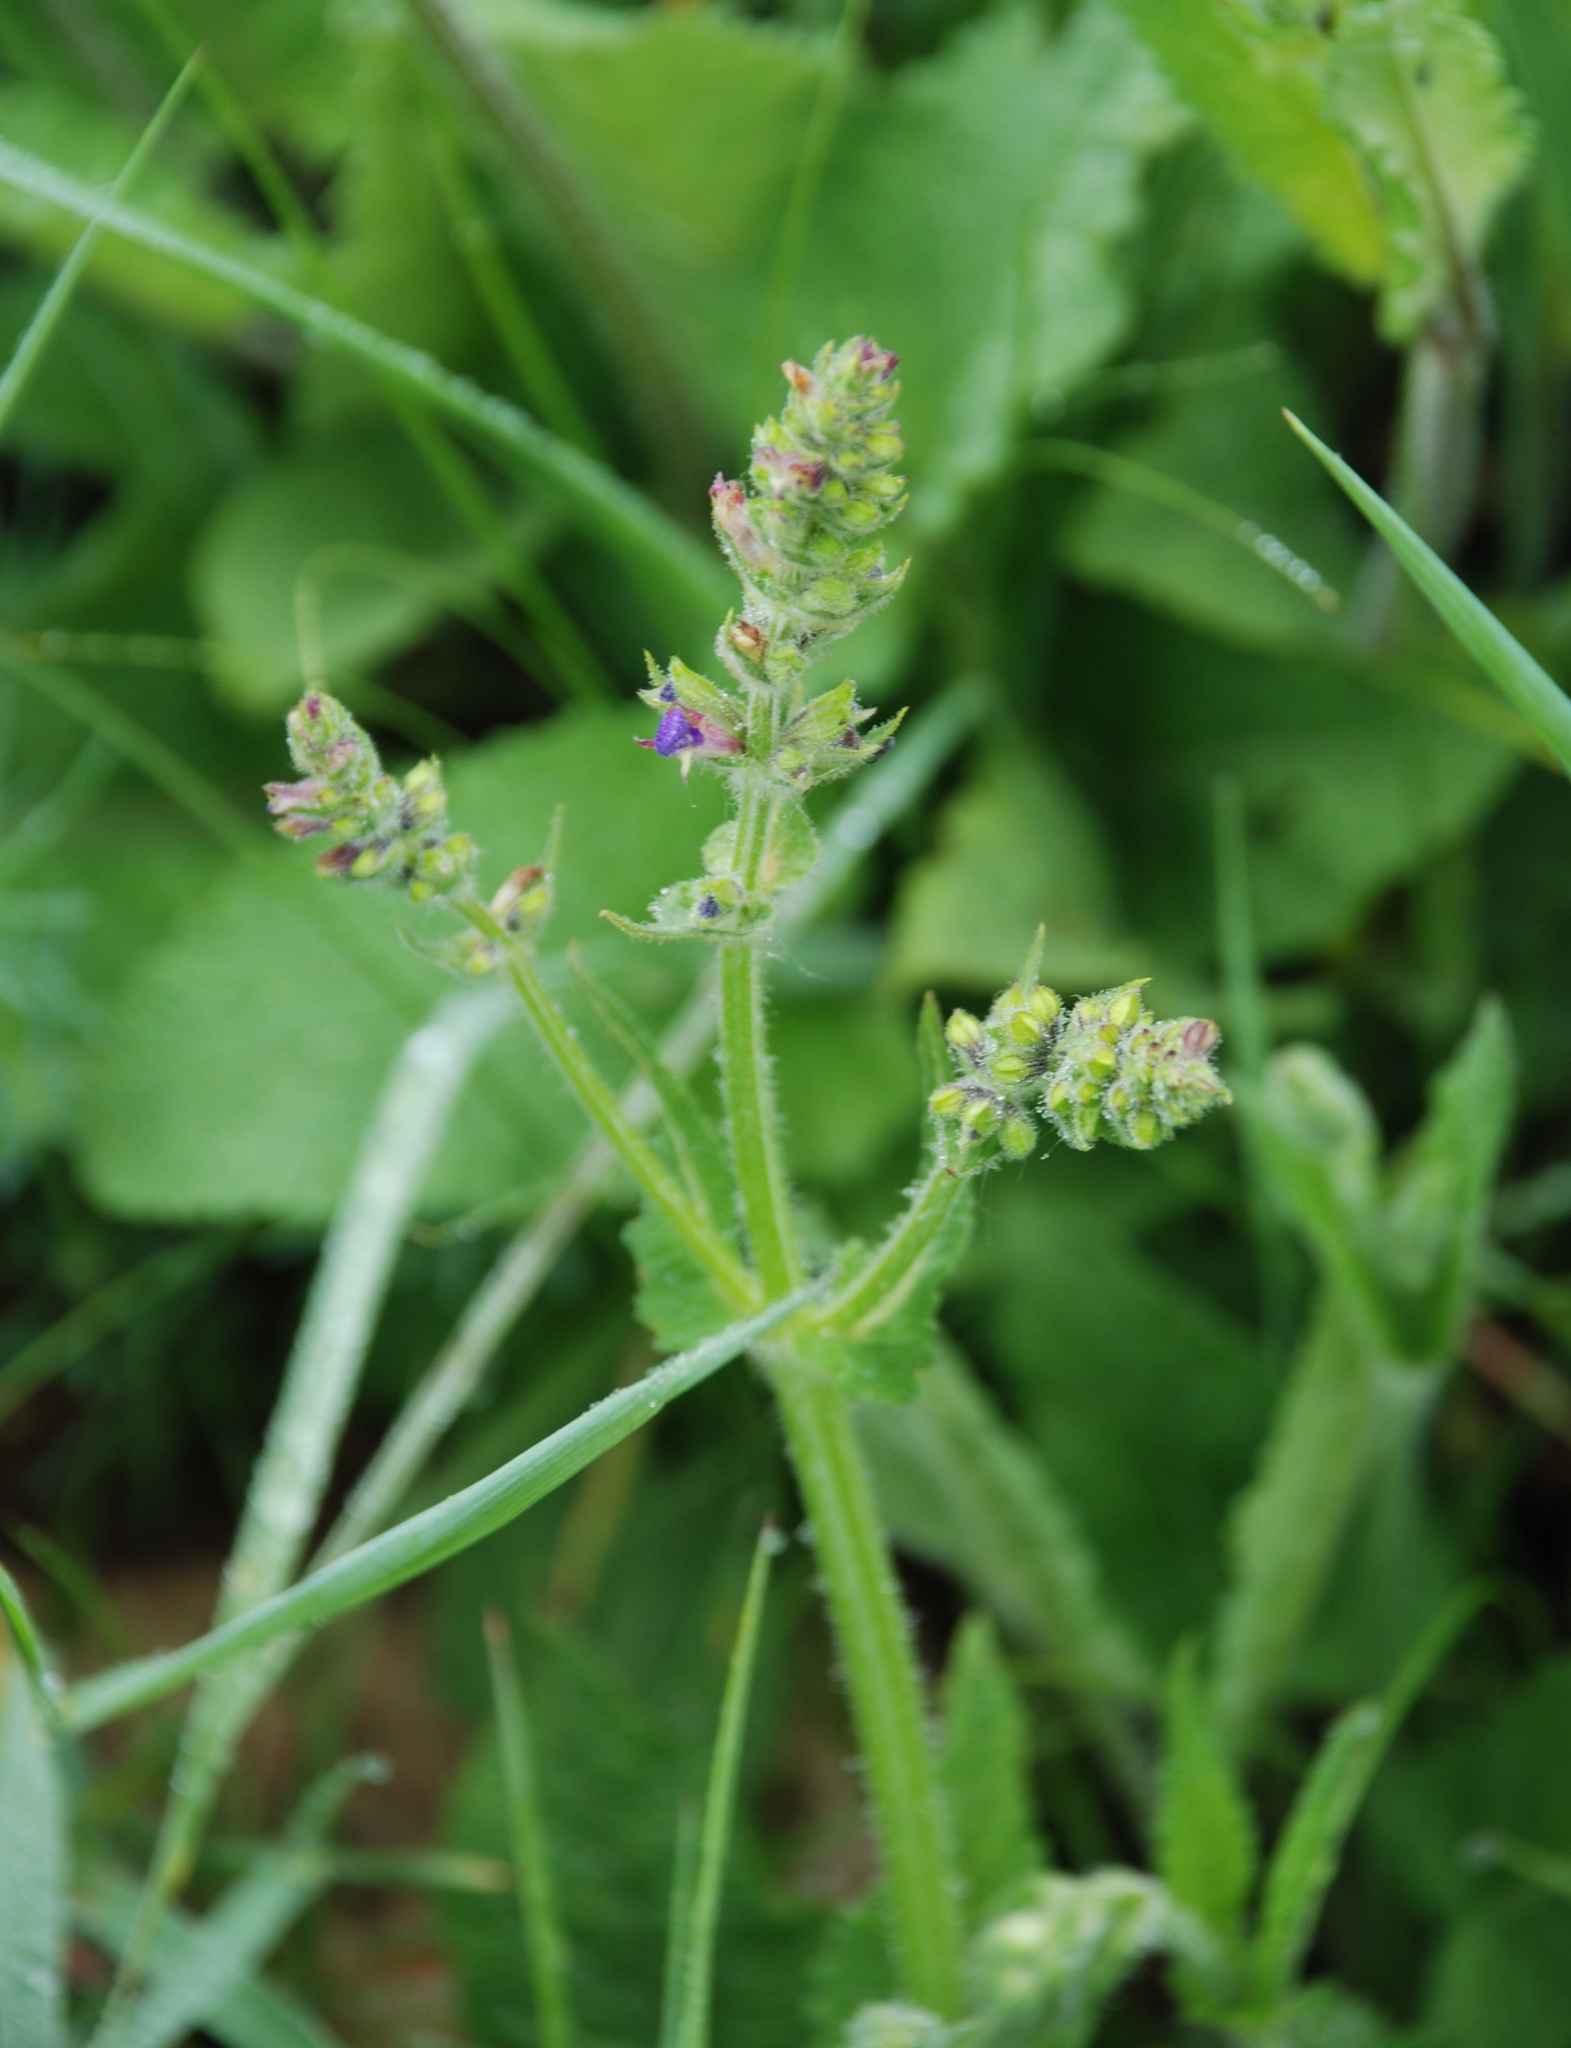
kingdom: Plantae
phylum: Tracheophyta
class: Magnoliopsida
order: Lamiales
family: Lamiaceae
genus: Salvia
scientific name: Salvia pratensis
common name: Meadow sage
